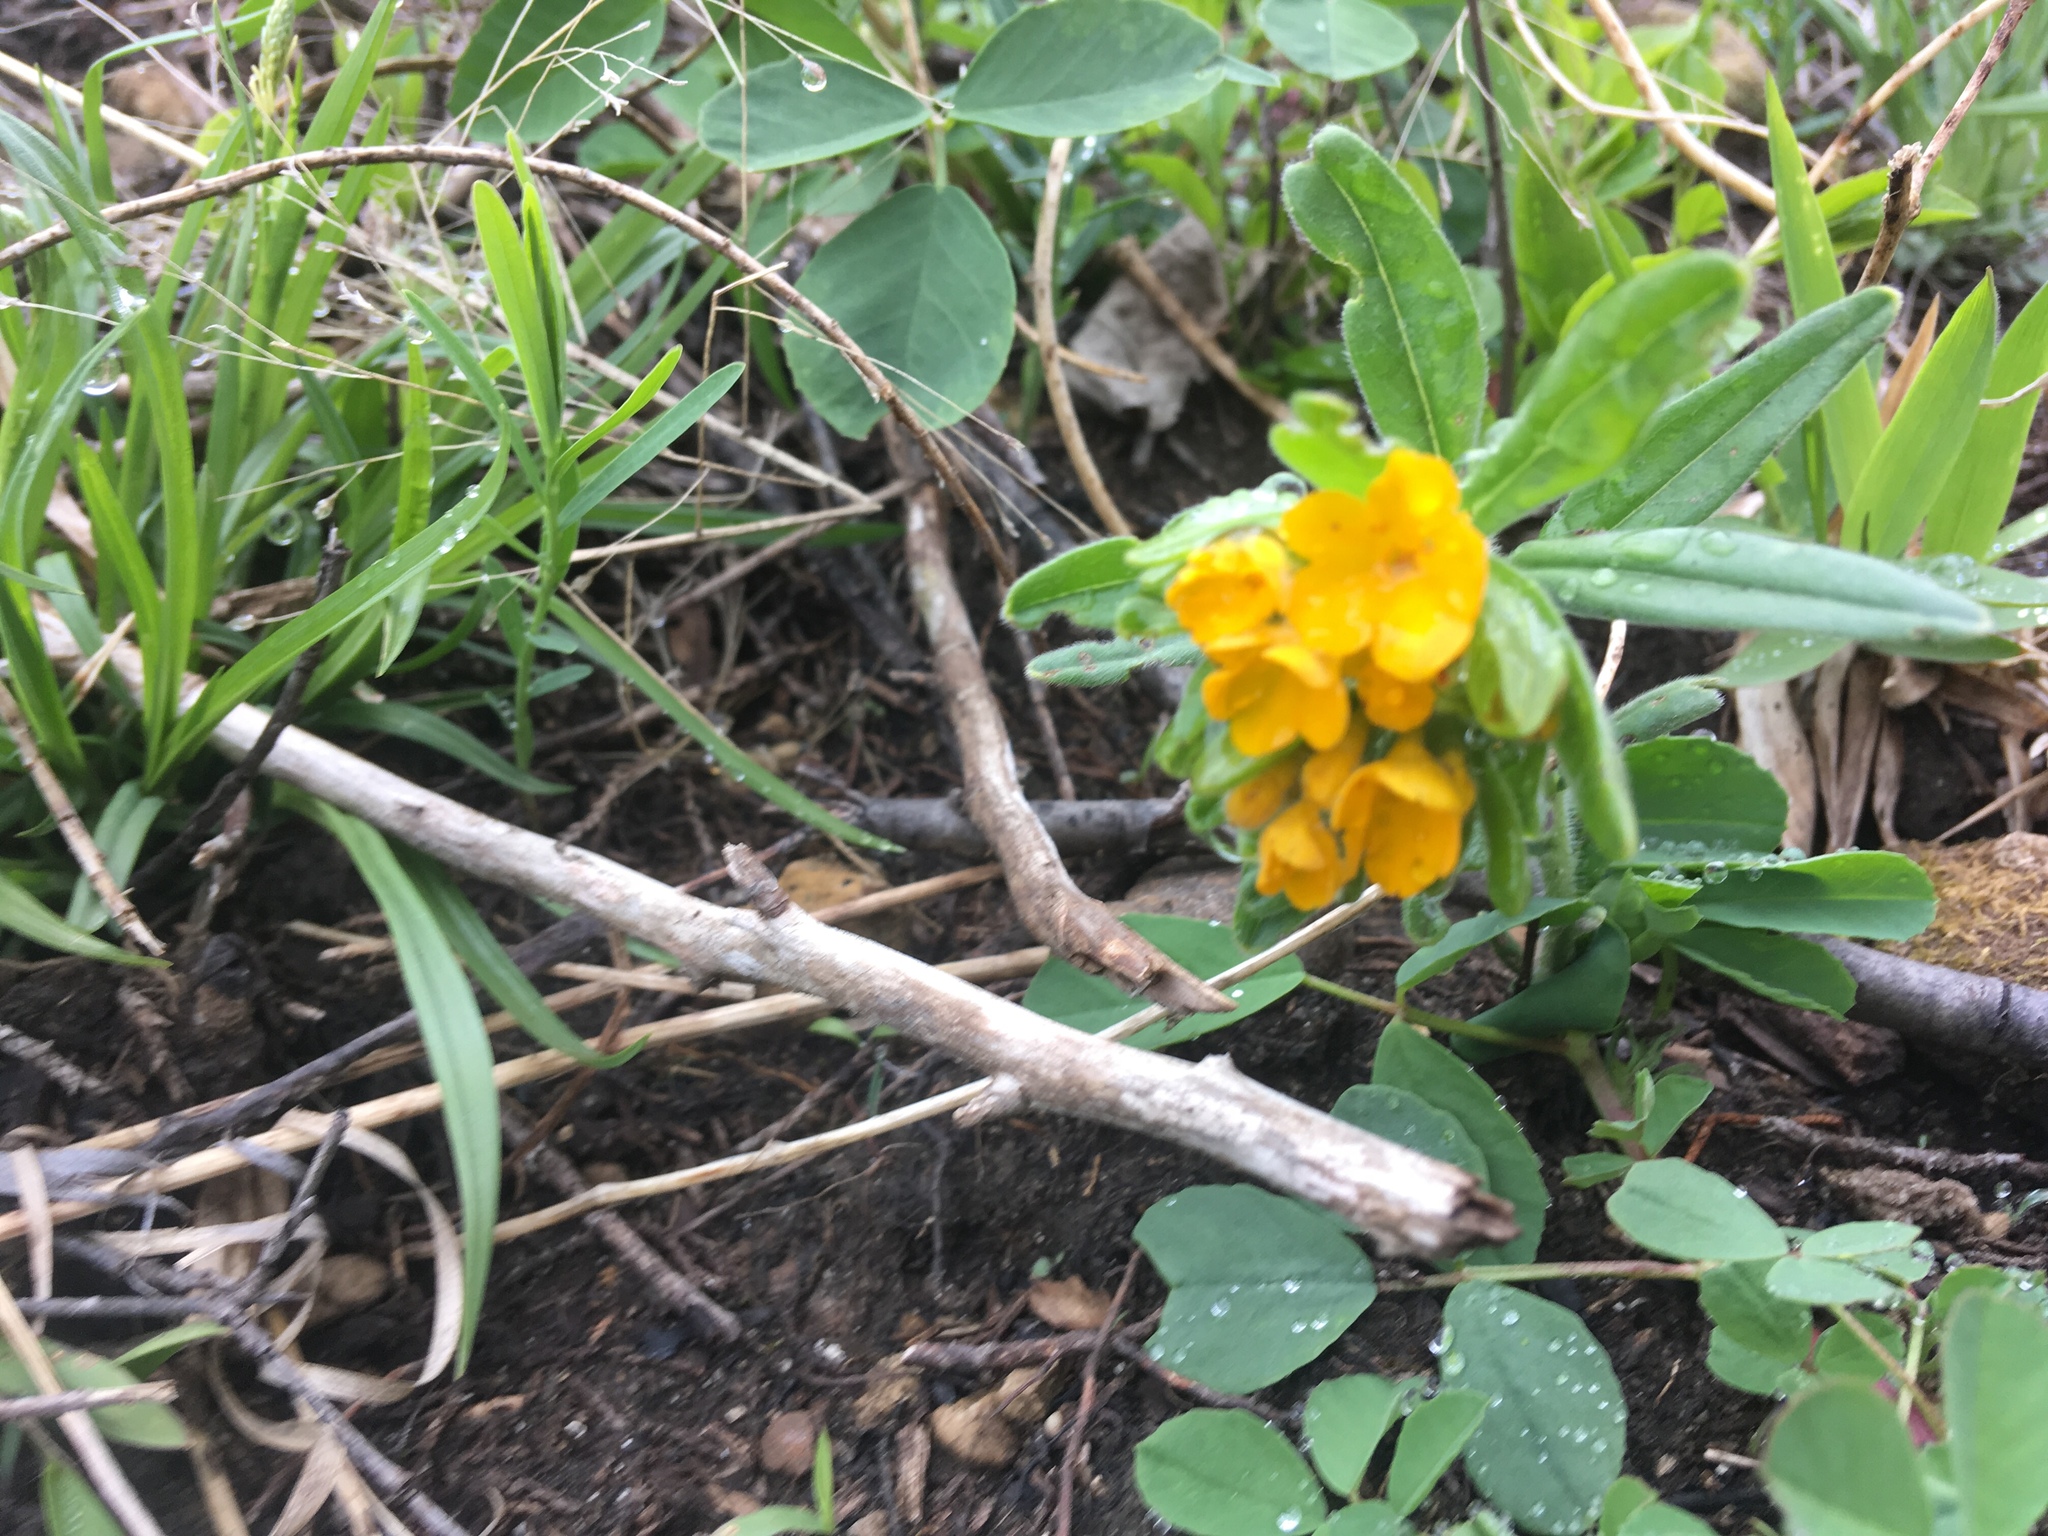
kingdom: Plantae
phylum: Tracheophyta
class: Magnoliopsida
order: Boraginales
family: Boraginaceae
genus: Lithospermum
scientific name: Lithospermum canescens
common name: Hoary puccoon
